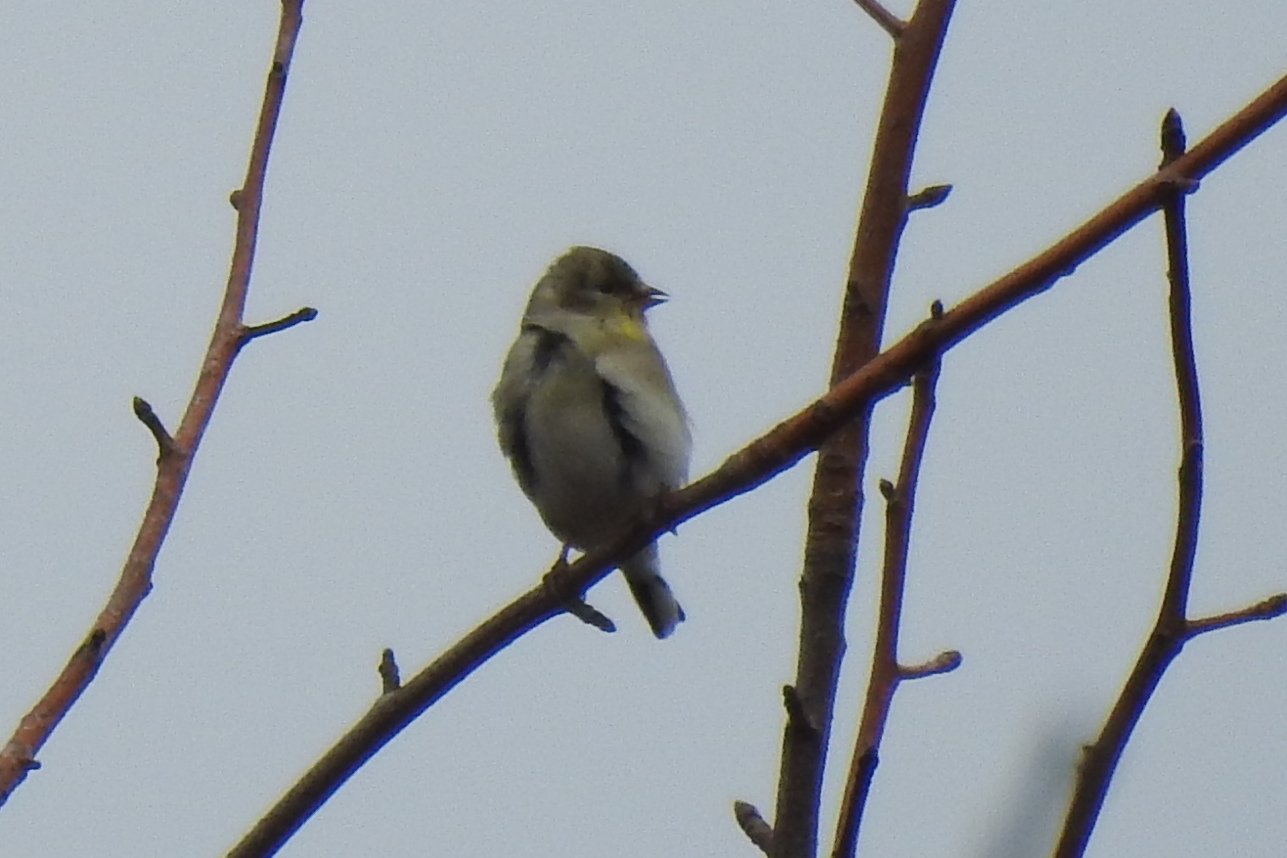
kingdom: Animalia
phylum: Chordata
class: Aves
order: Passeriformes
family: Fringillidae
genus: Spinus
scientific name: Spinus tristis
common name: American goldfinch
